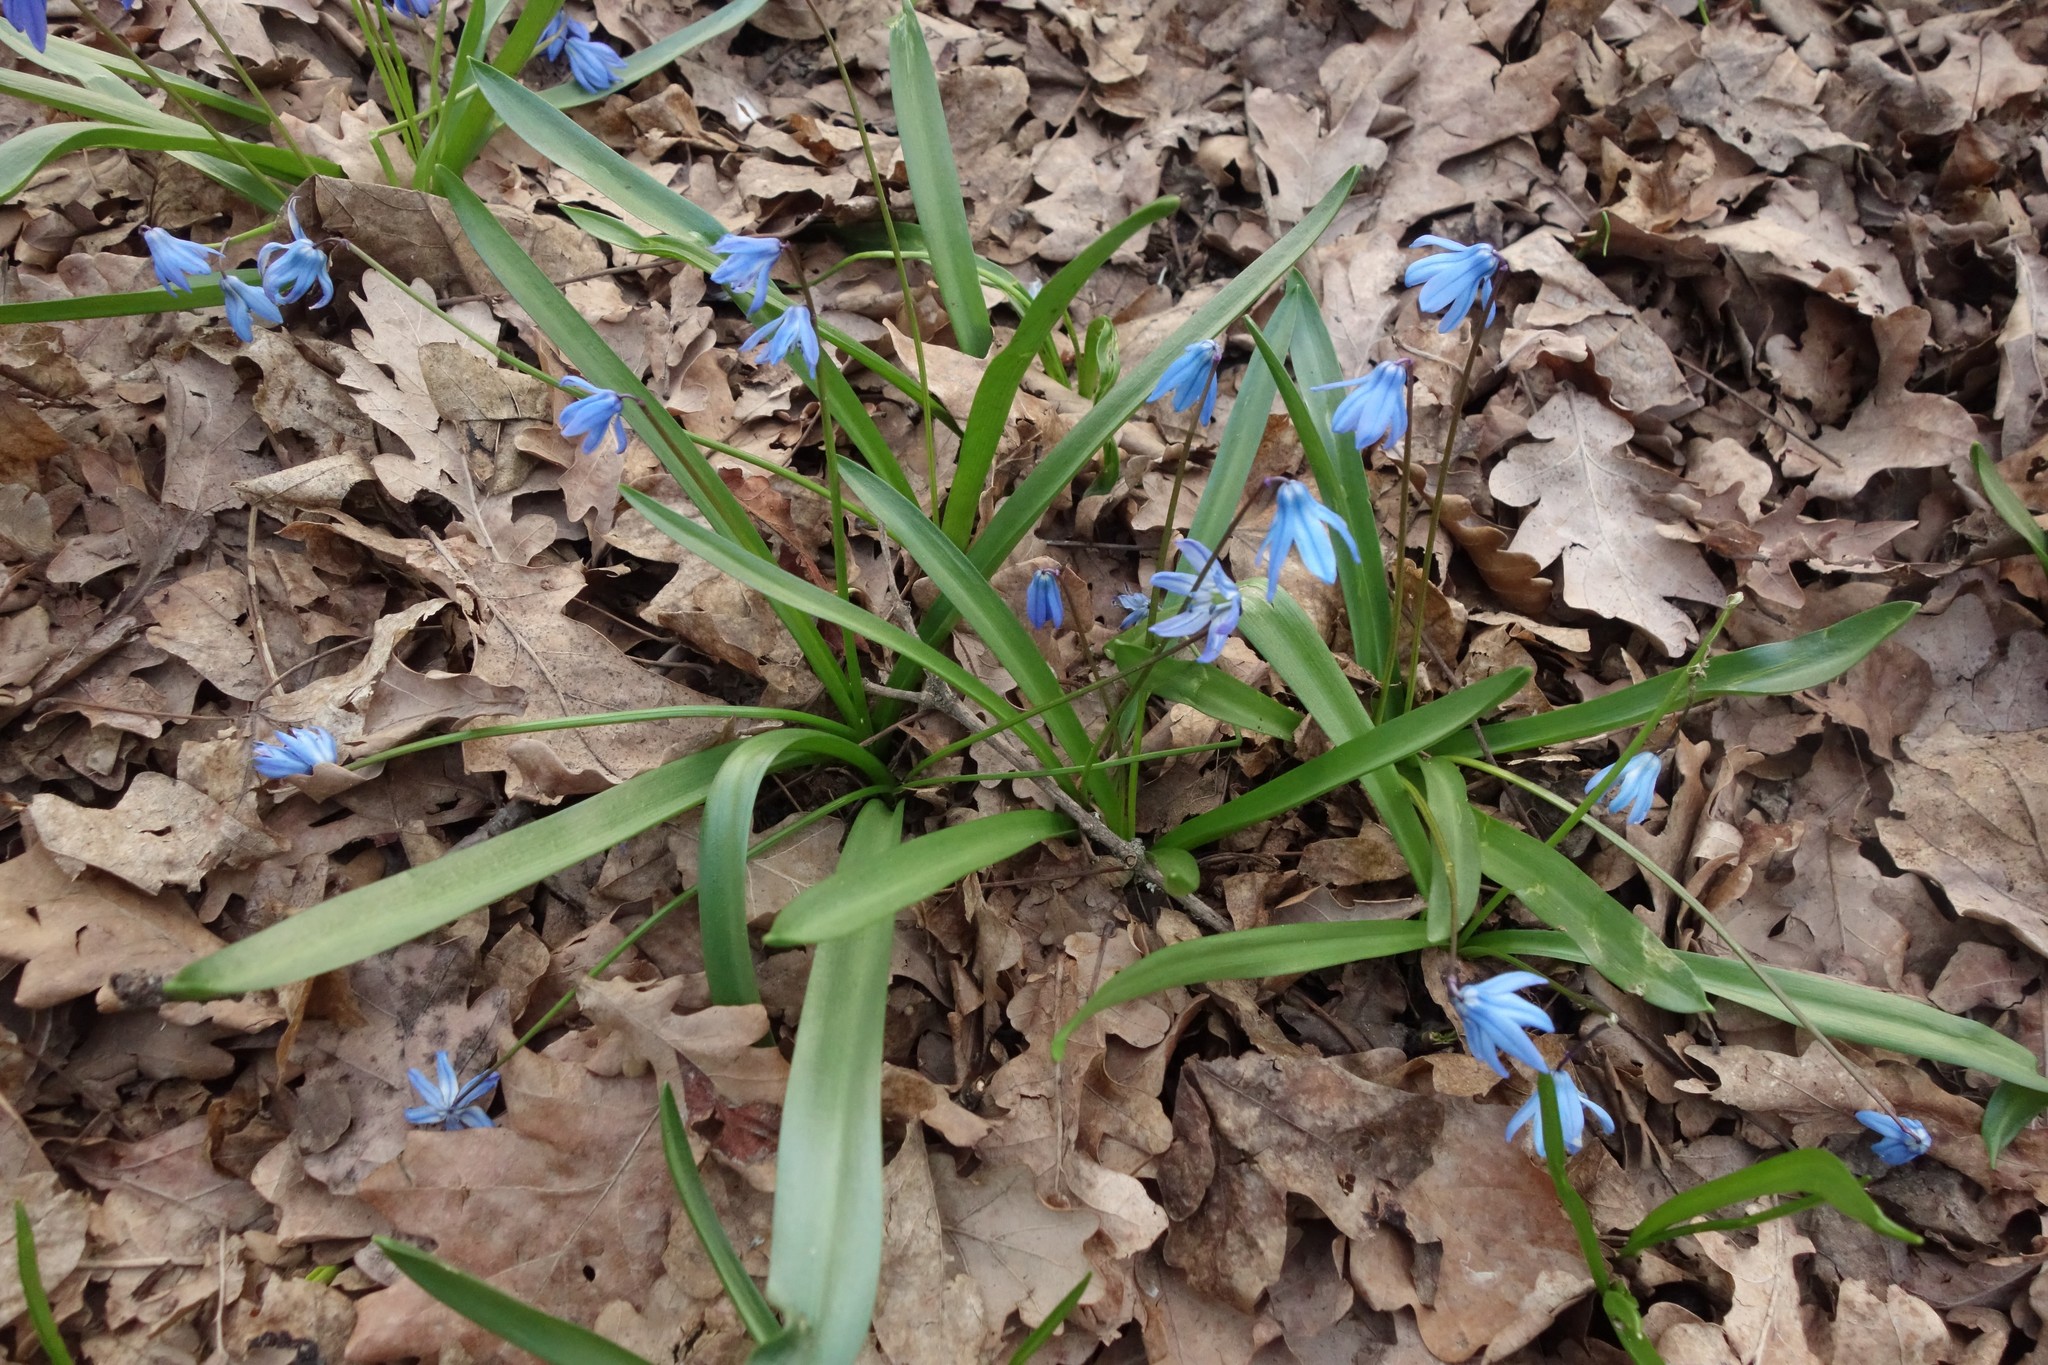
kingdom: Plantae
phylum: Tracheophyta
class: Liliopsida
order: Asparagales
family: Asparagaceae
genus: Scilla
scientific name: Scilla siberica
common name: Siberian squill
